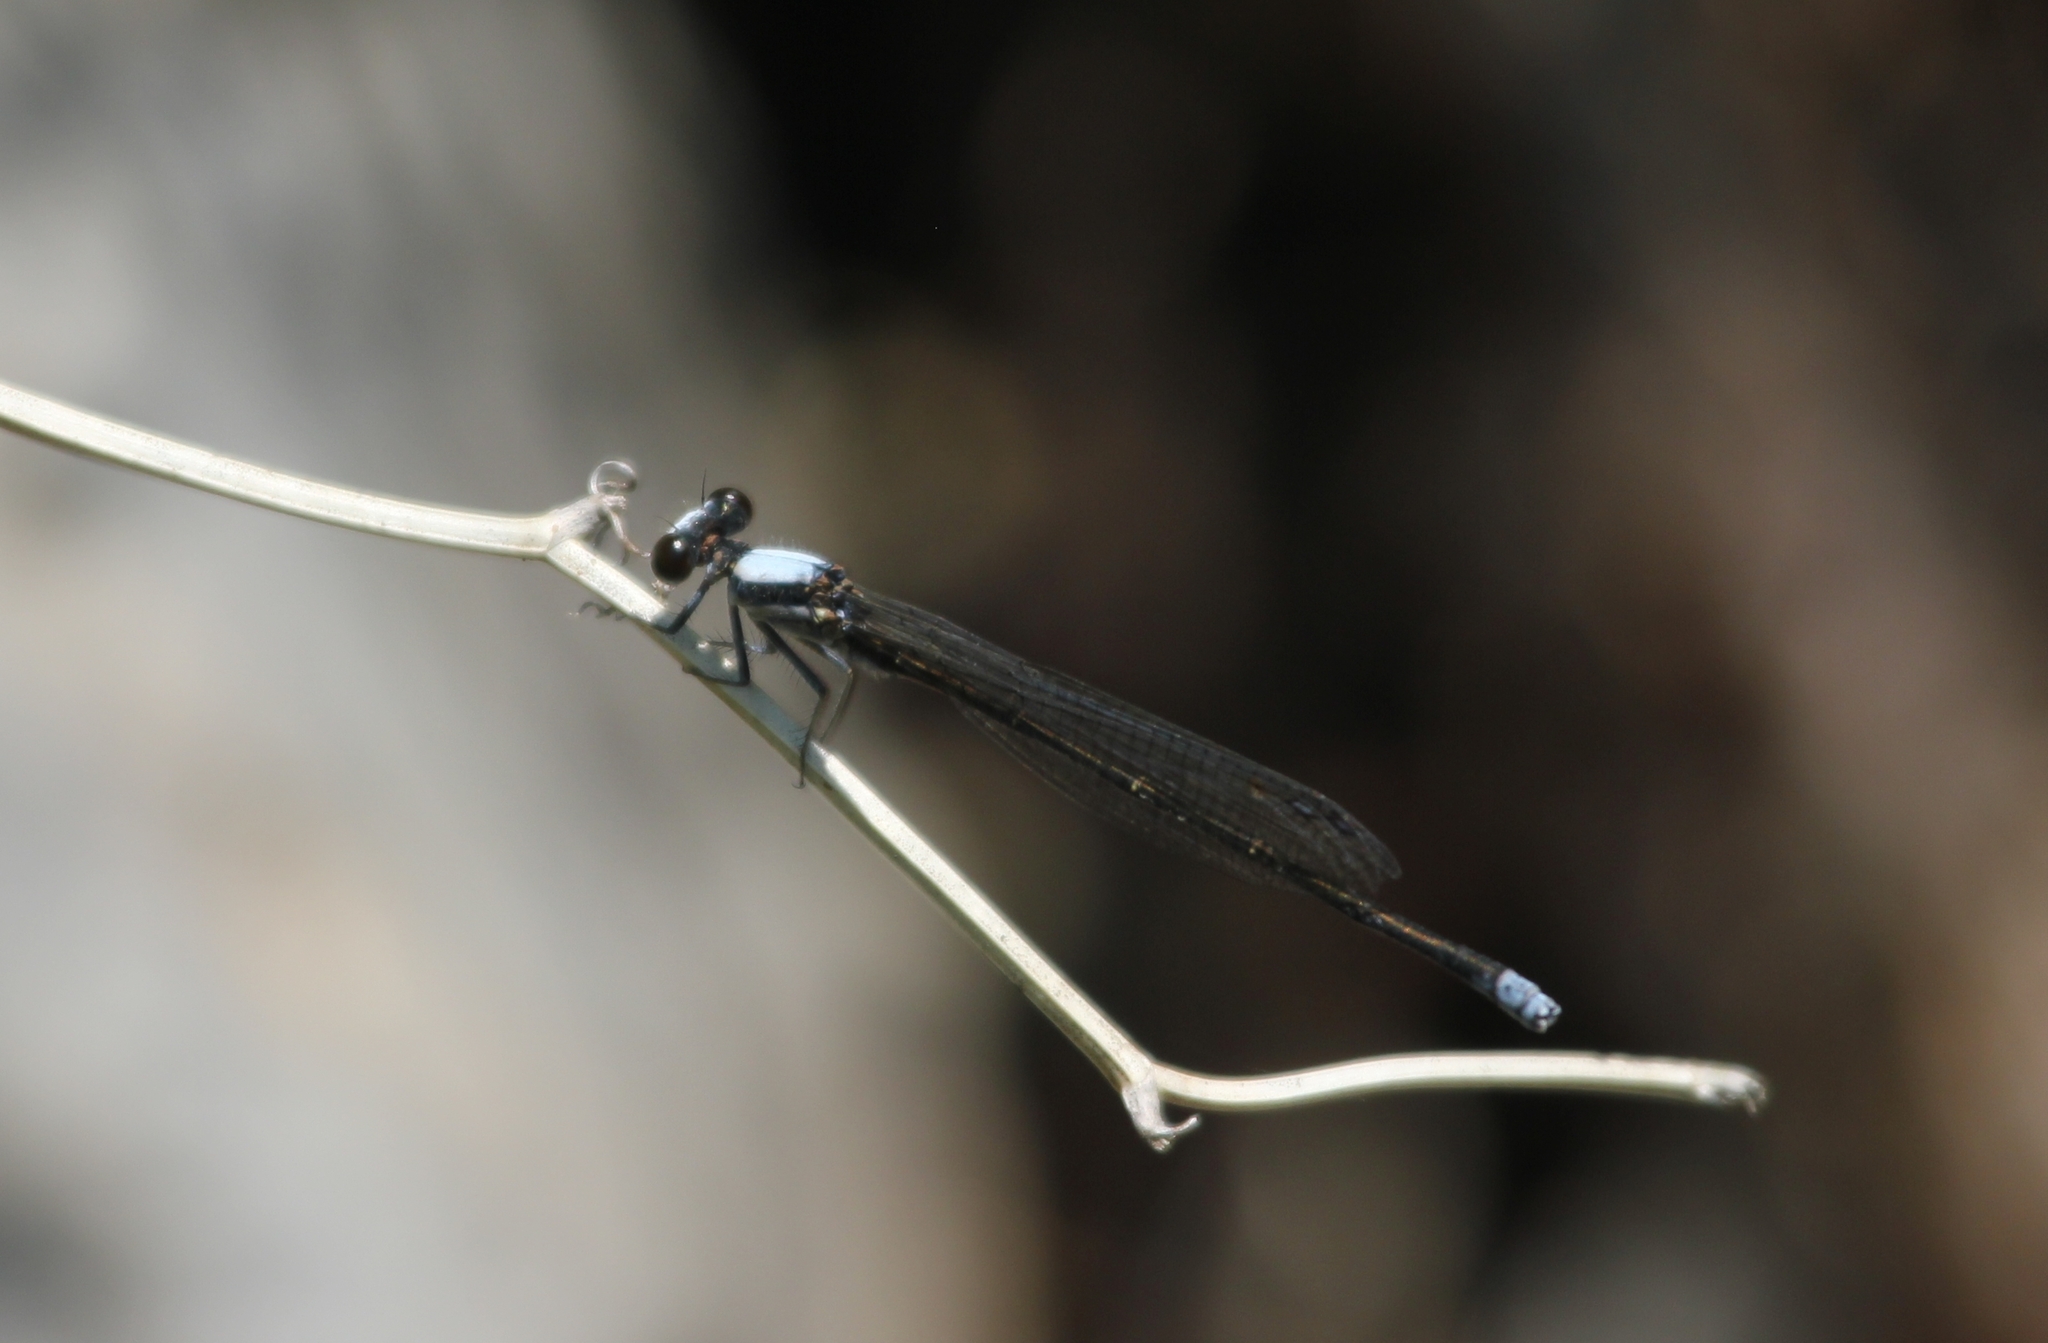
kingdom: Animalia
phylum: Arthropoda
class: Insecta
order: Odonata
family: Coenagrionidae
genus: Argia
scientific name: Argia moesta
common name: Powdered dancer
